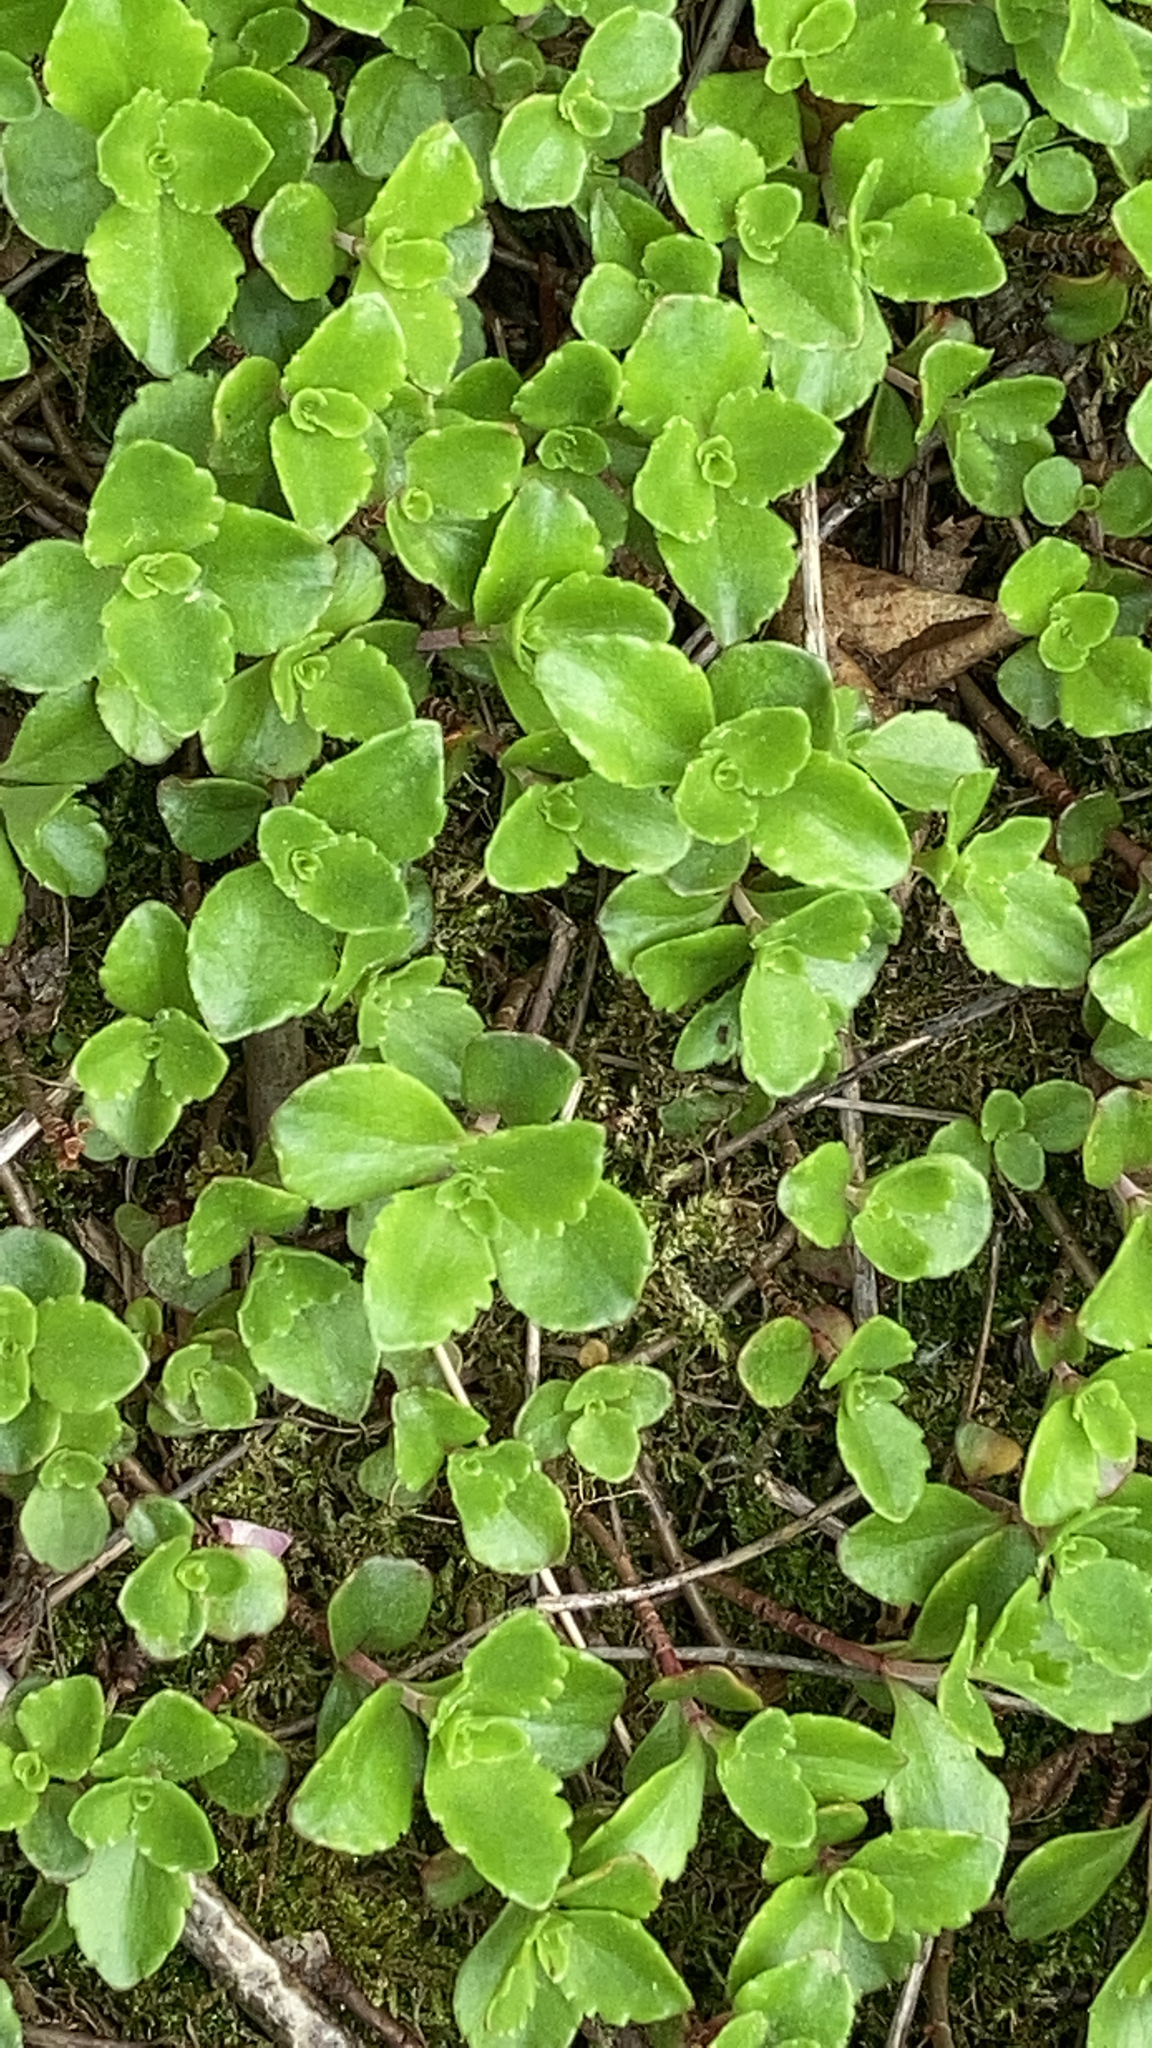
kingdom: Plantae
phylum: Tracheophyta
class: Magnoliopsida
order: Saxifragales
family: Crassulaceae
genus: Phedimus
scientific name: Phedimus spurius
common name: Caucasian stonecrop
